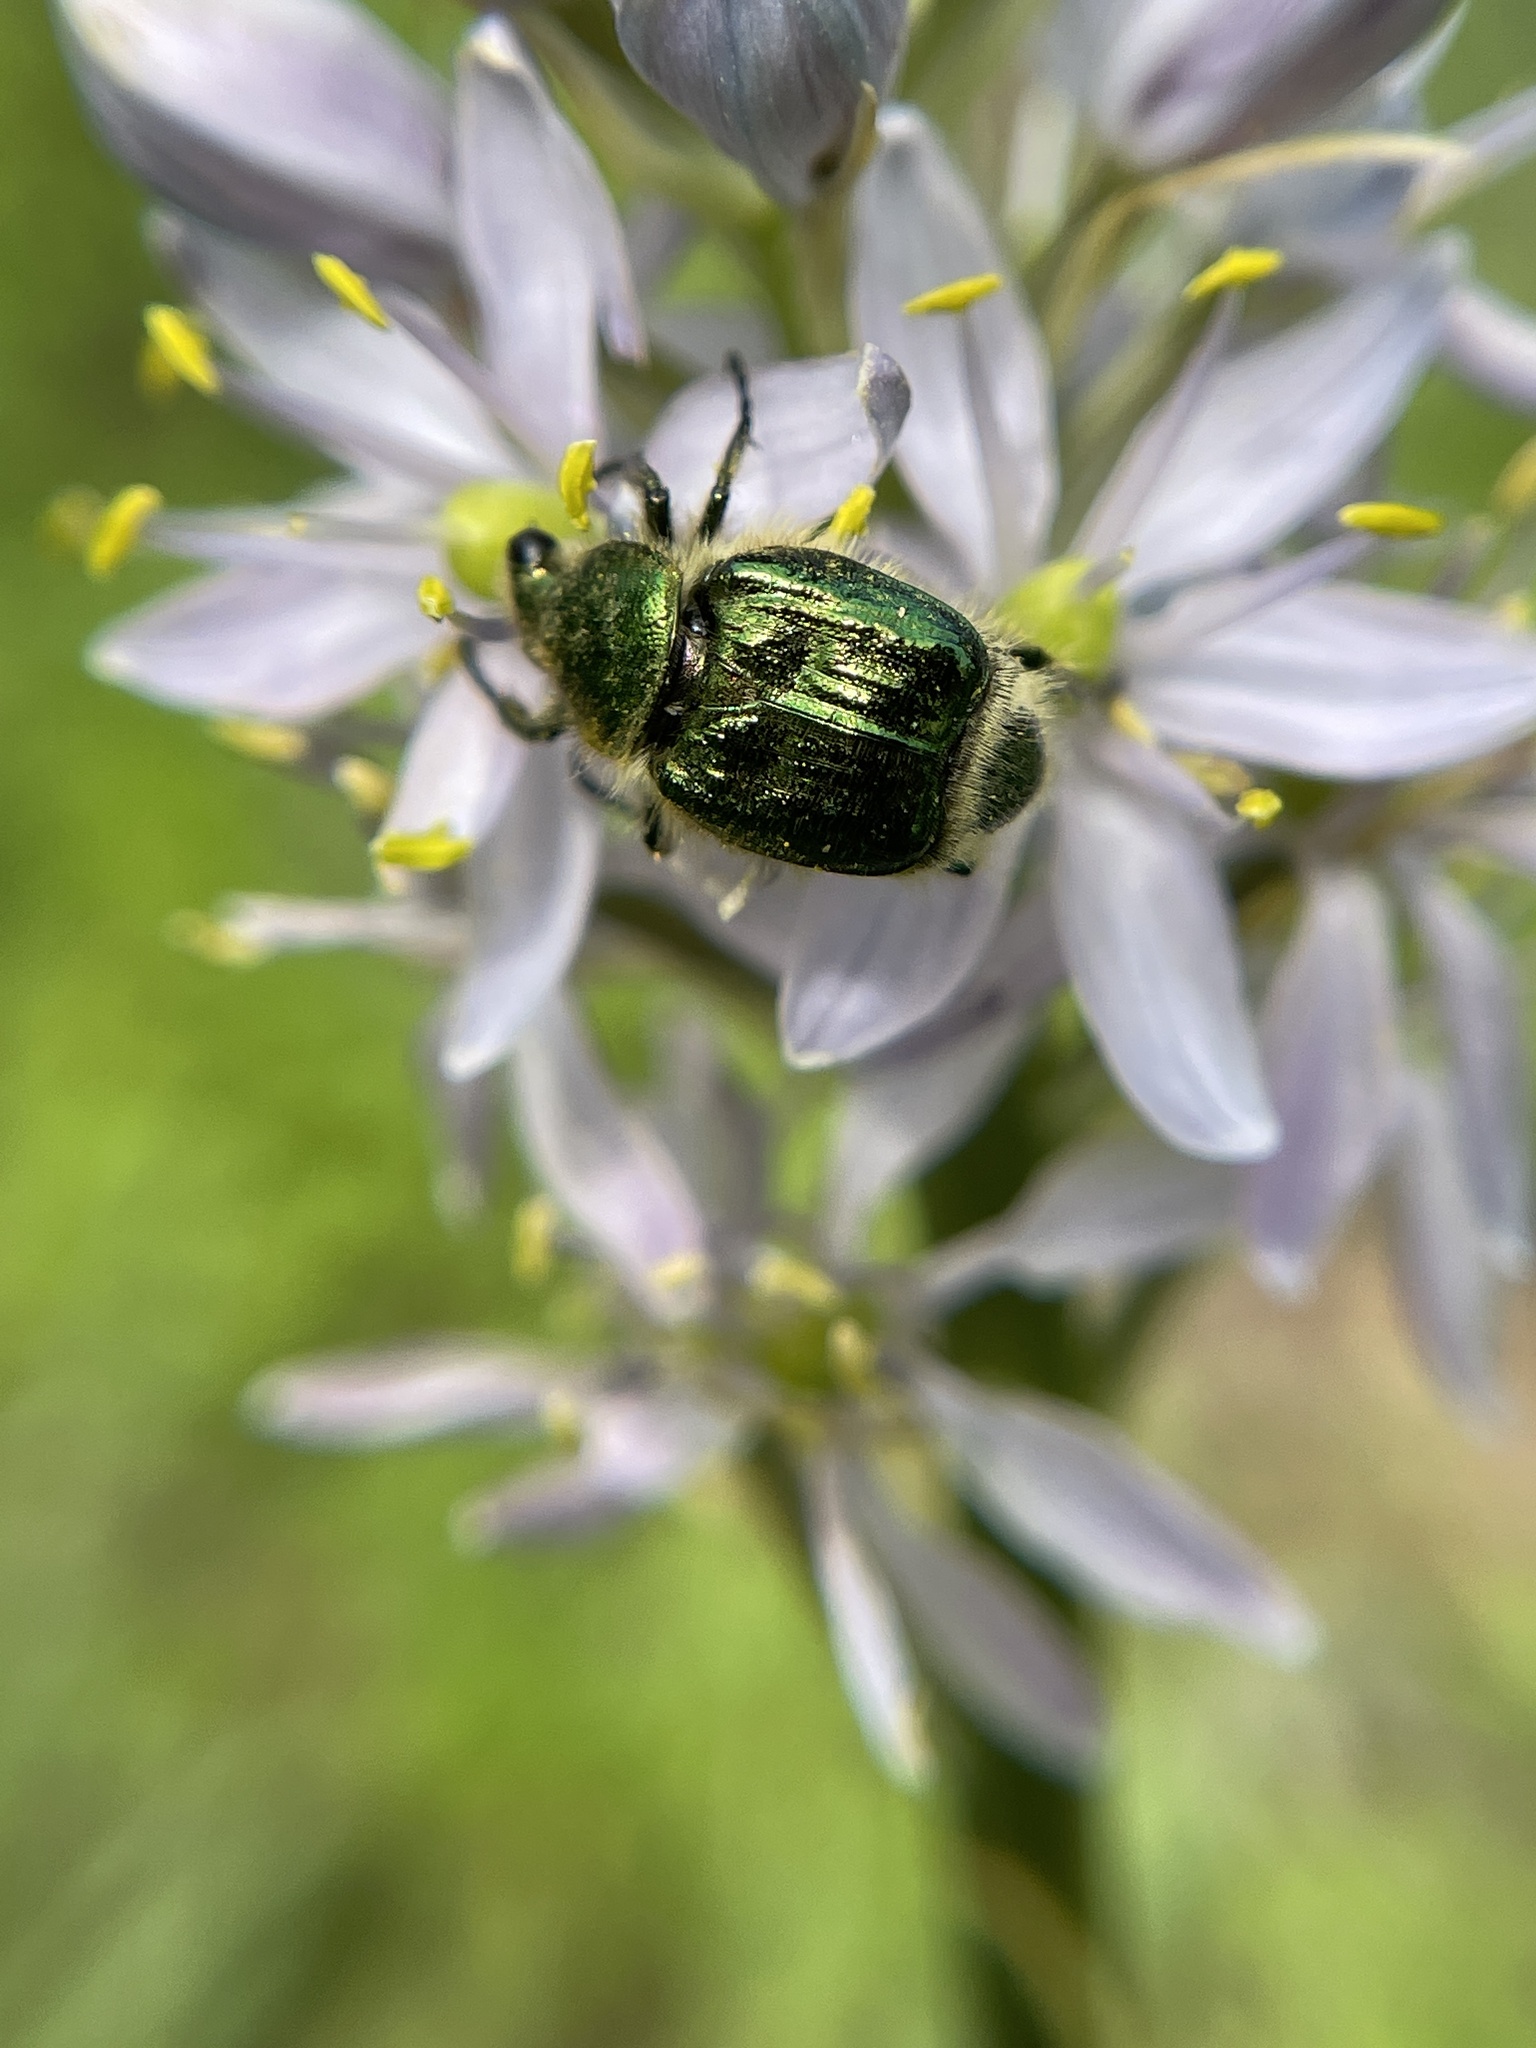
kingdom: Animalia
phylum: Arthropoda
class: Insecta
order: Coleoptera
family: Scarabaeidae
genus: Trichiotinus
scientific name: Trichiotinus lunulatus
